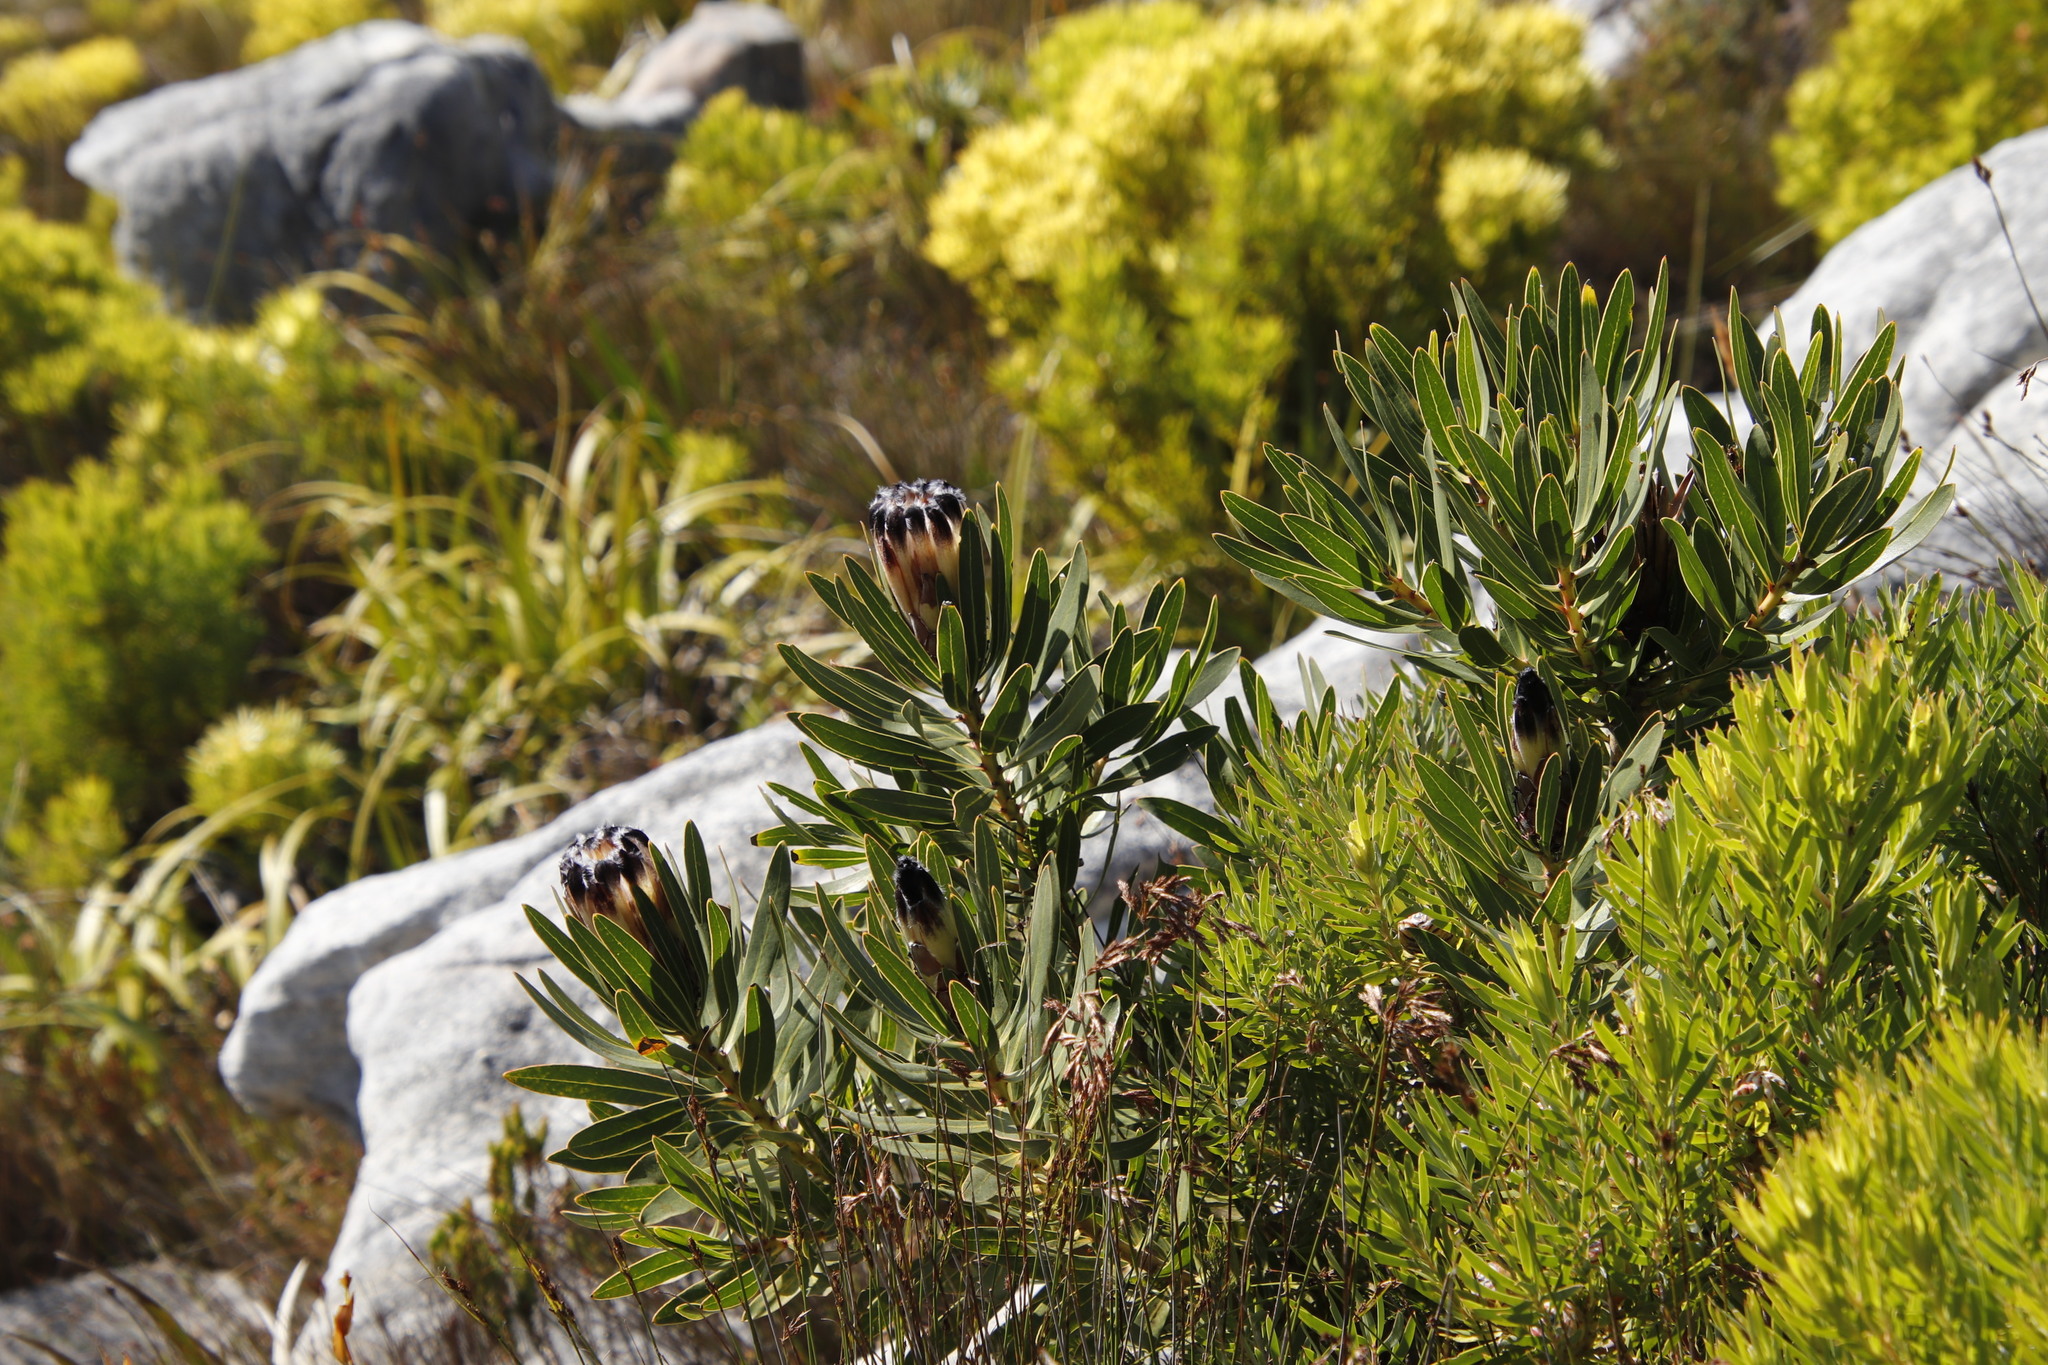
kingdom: Plantae
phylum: Tracheophyta
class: Magnoliopsida
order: Proteales
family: Proteaceae
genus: Protea
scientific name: Protea lepidocarpodendron
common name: Black-bearded protea
